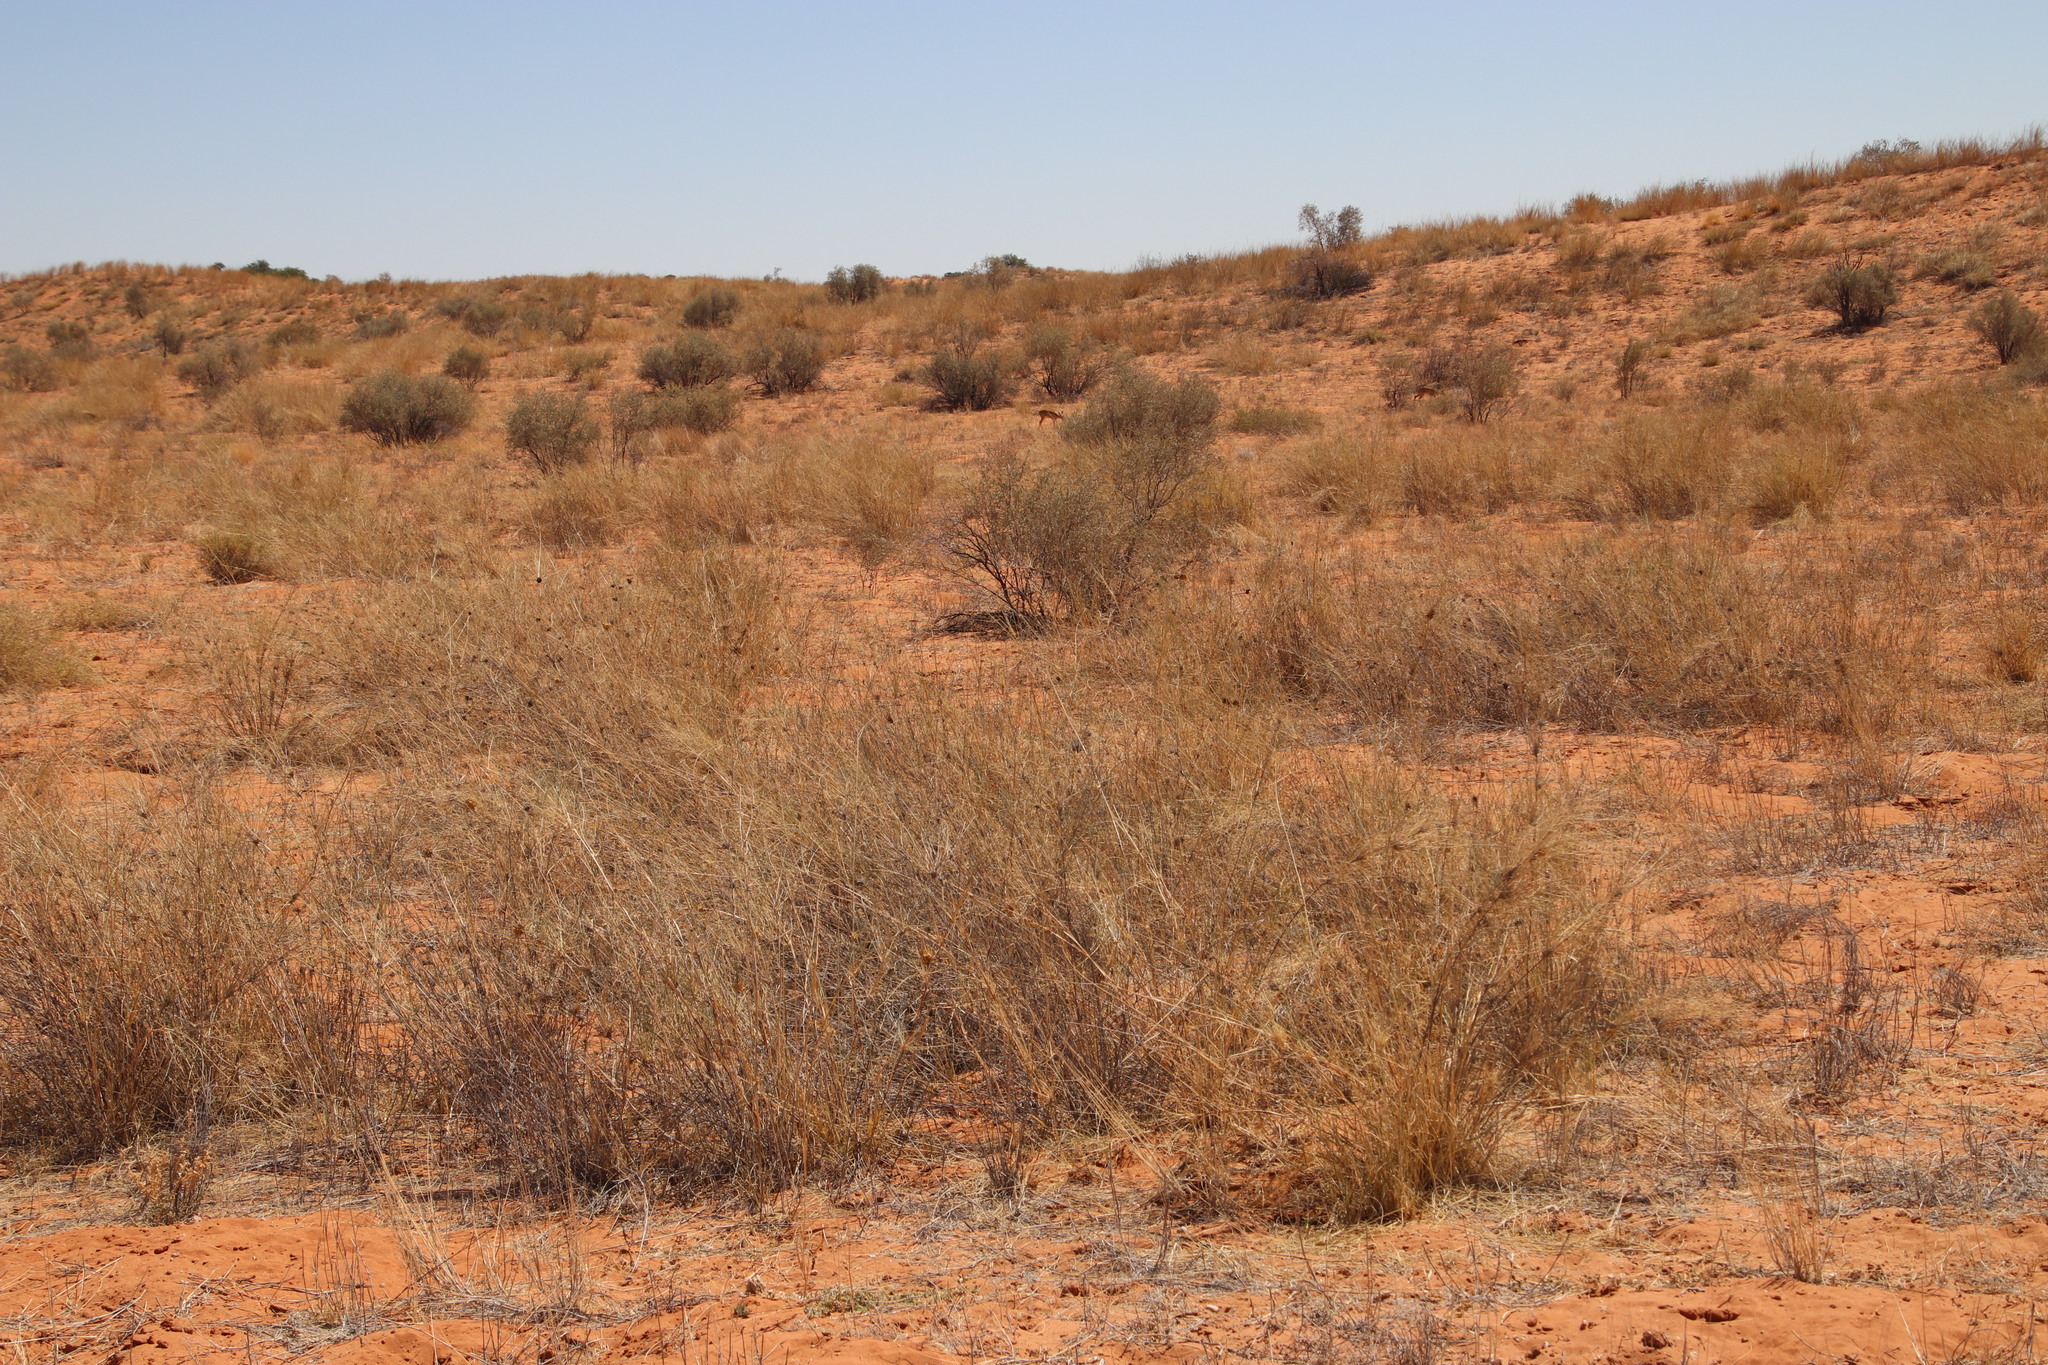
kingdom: Plantae
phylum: Tracheophyta
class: Liliopsida
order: Poales
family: Poaceae
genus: Stipagrostis
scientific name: Stipagrostis namaquensis
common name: River bushman grass
